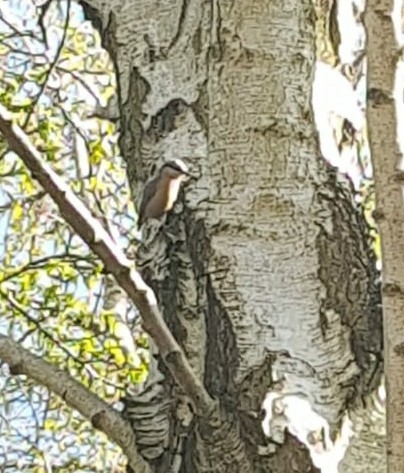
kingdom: Animalia
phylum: Chordata
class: Aves
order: Passeriformes
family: Sittidae
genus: Sitta
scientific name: Sitta europaea
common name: Eurasian nuthatch
